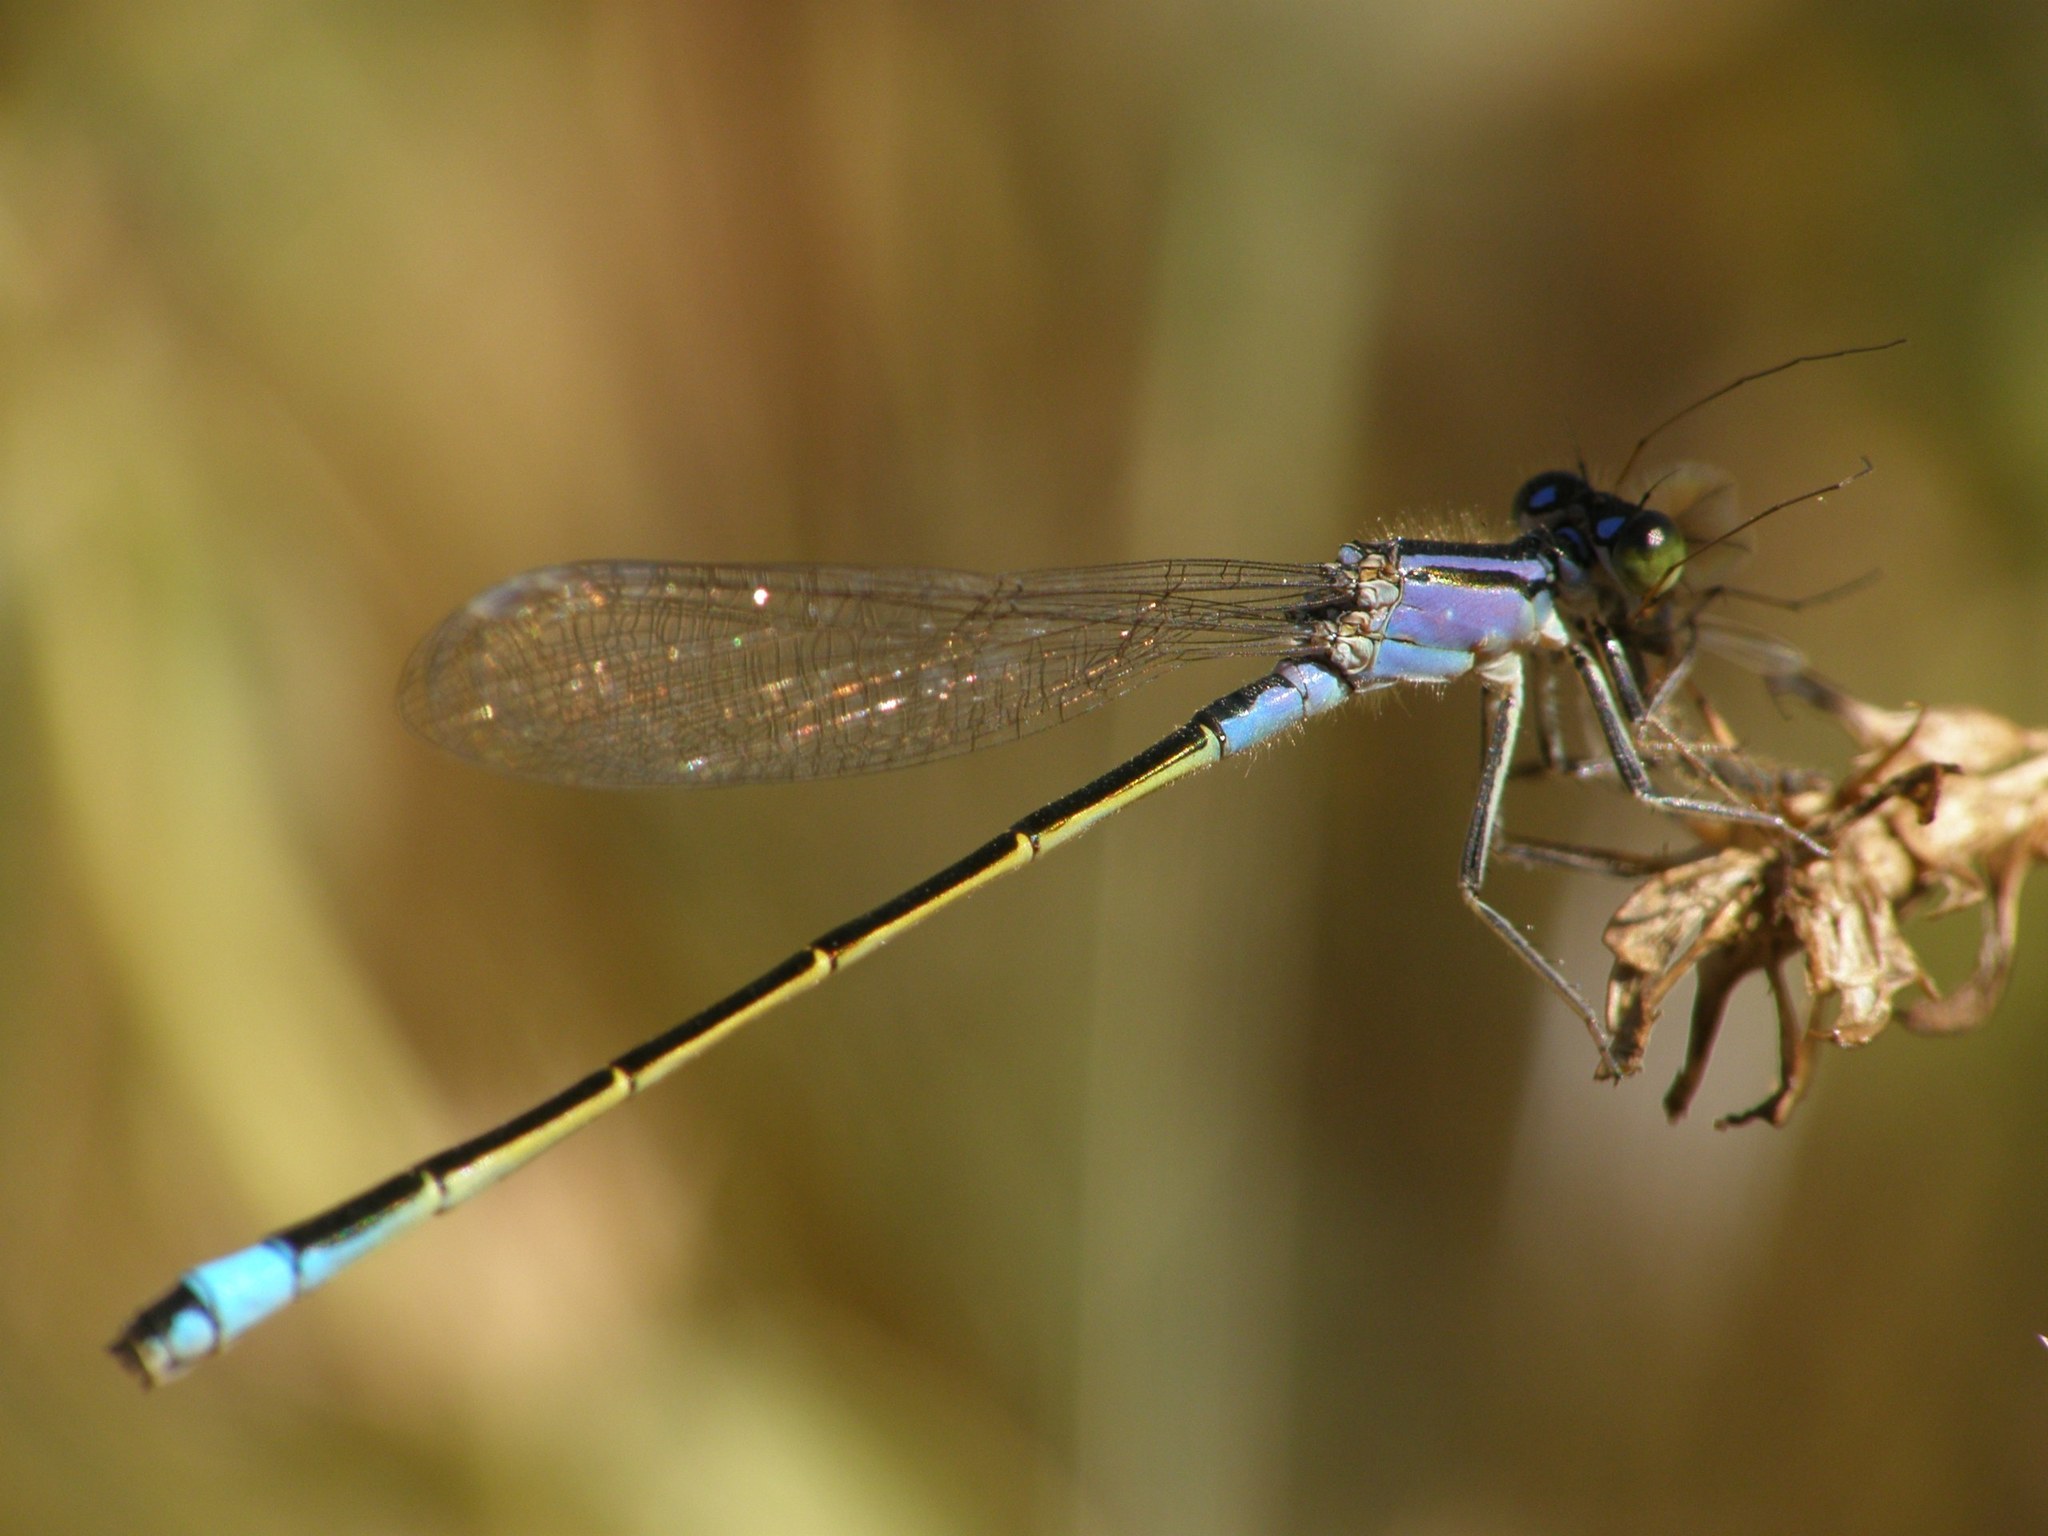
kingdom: Animalia
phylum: Arthropoda
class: Insecta
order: Odonata
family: Coenagrionidae
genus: Ischnura
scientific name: Ischnura elegans
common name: Blue-tailed damselfly
